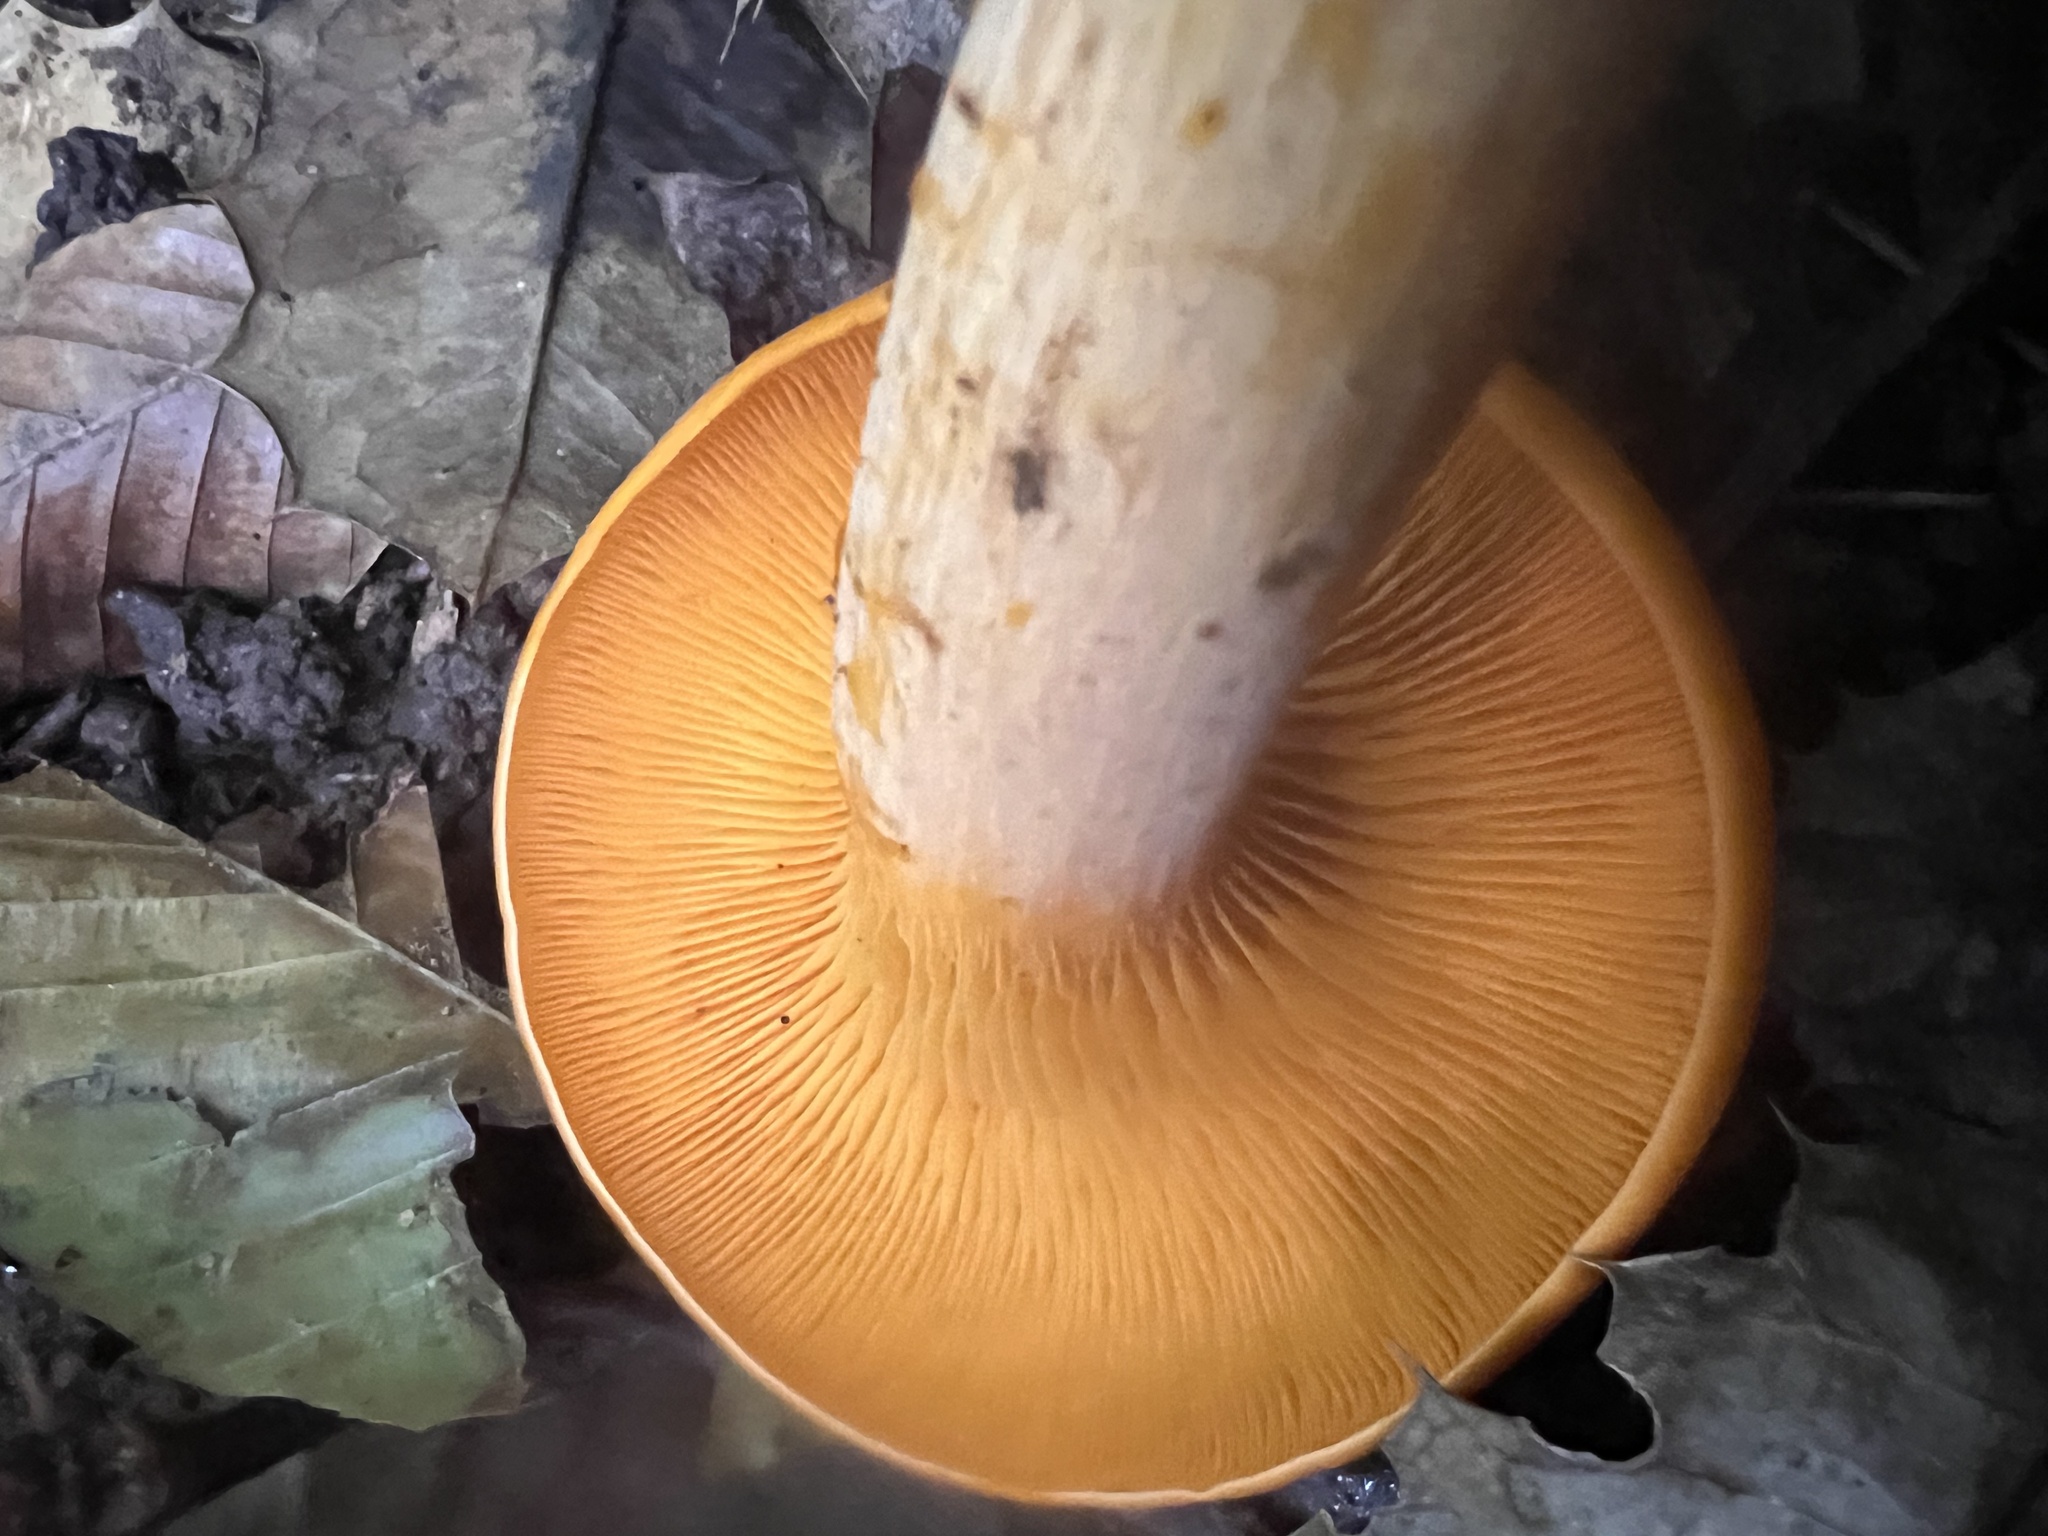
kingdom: Fungi
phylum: Basidiomycota
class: Agaricomycetes
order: Agaricales
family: Omphalotaceae
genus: Omphalotus
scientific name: Omphalotus illudens
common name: Jack o lantern
